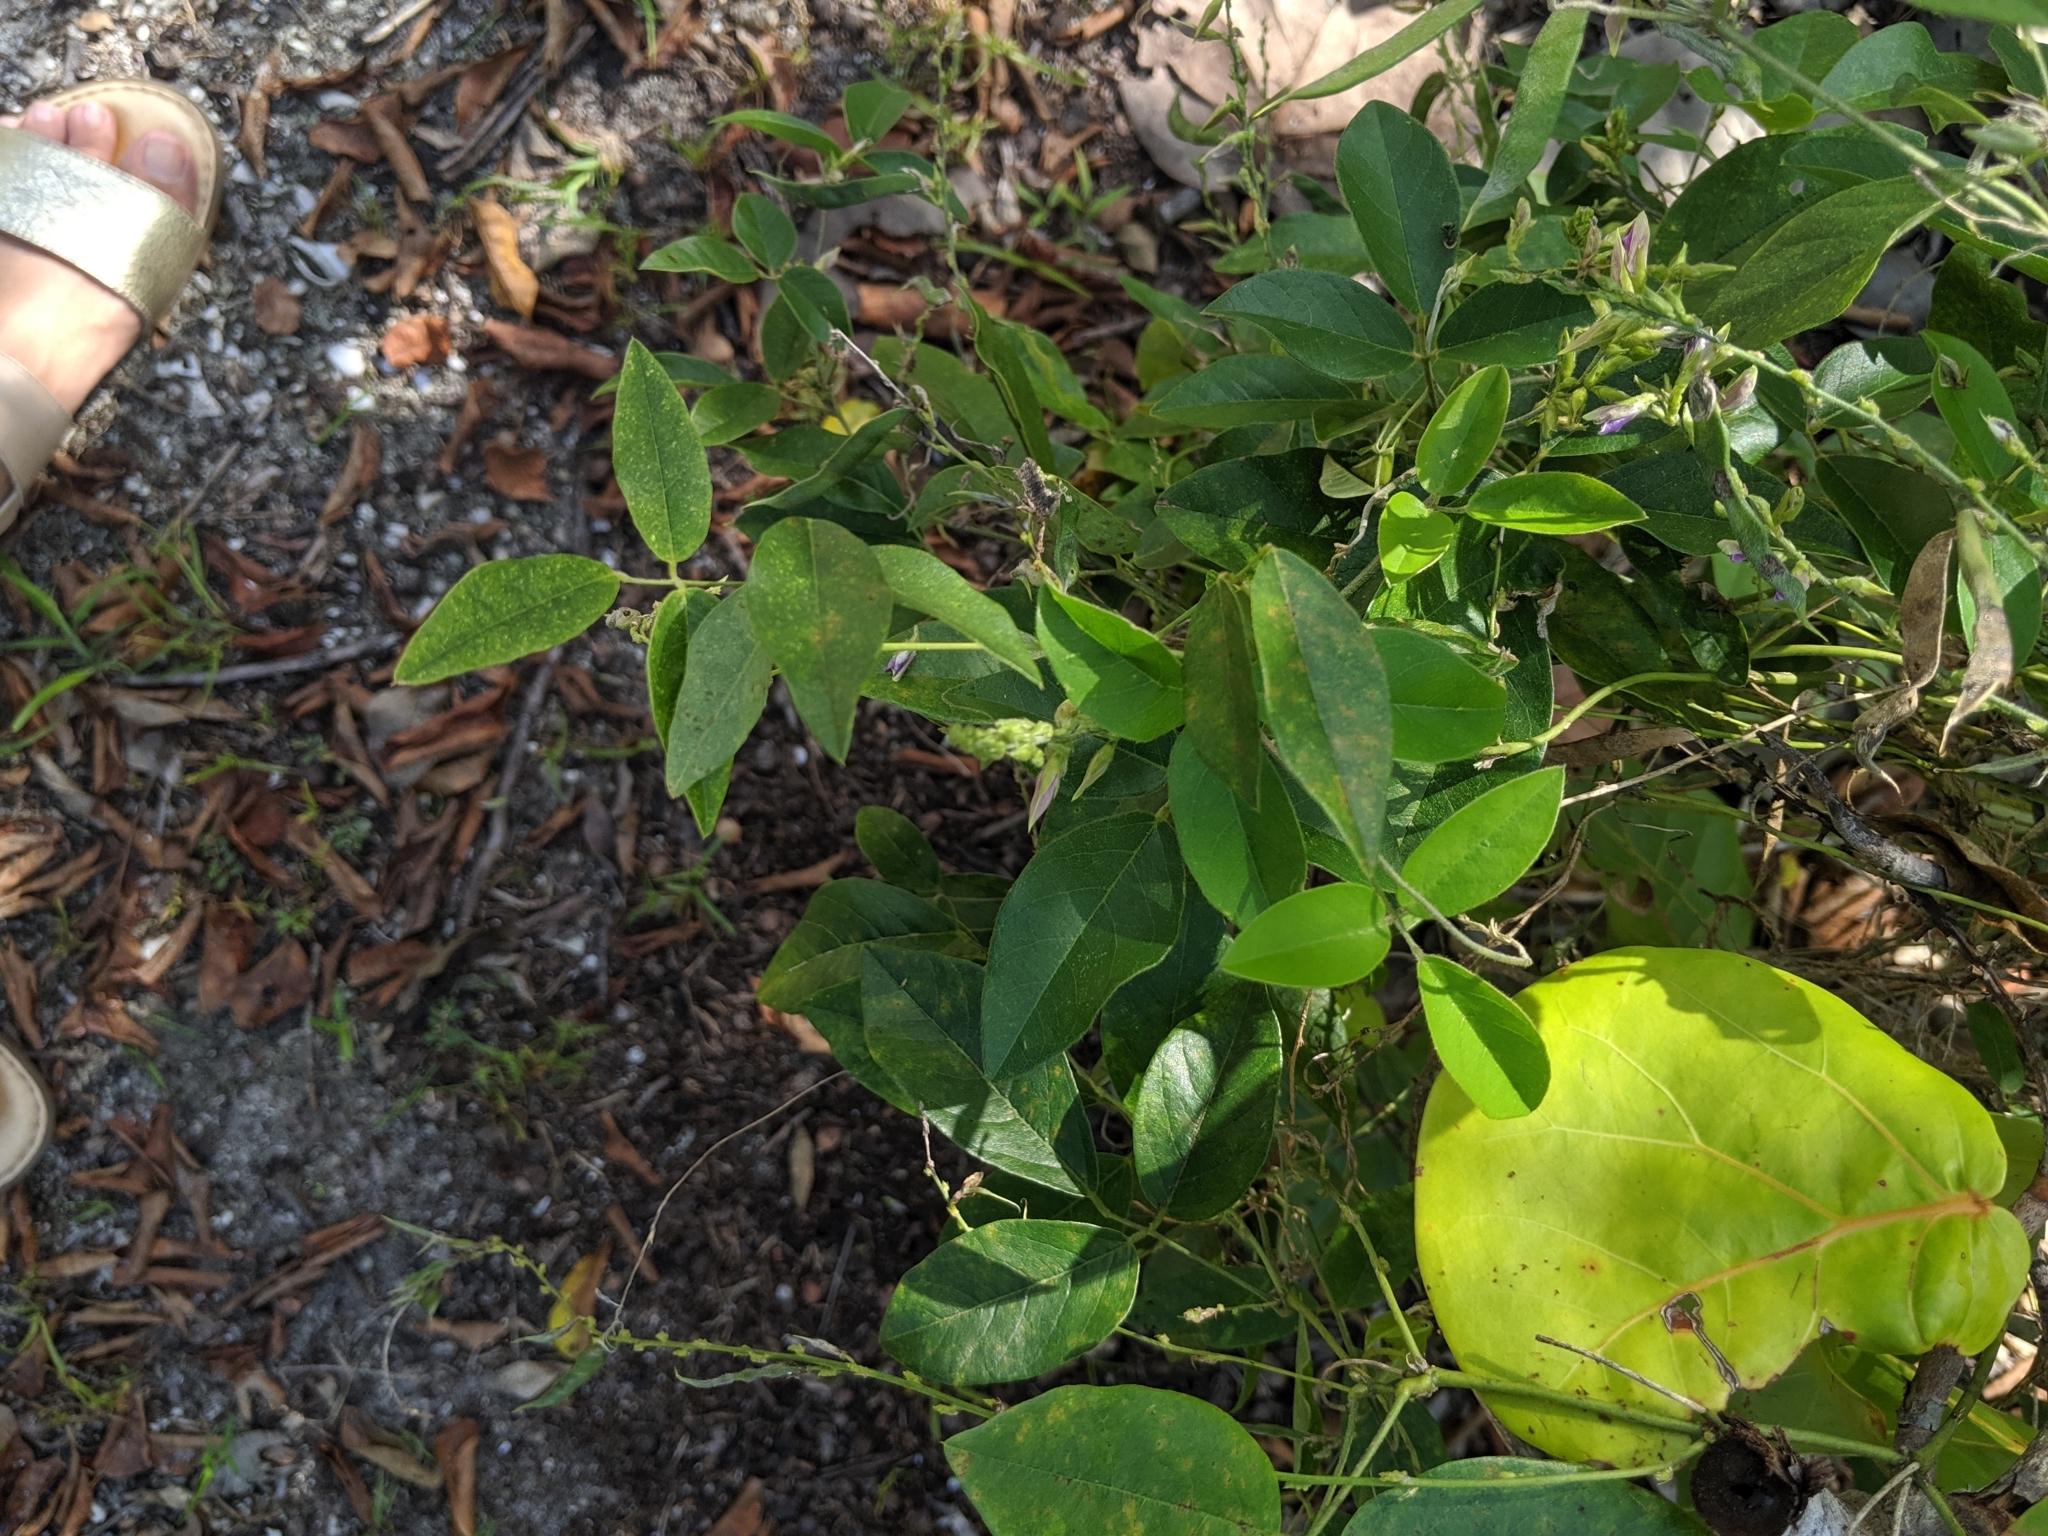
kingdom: Plantae
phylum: Tracheophyta
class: Magnoliopsida
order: Fabales
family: Fabaceae
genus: Galactia
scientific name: Galactia striata
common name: Florida hammock milkpea
